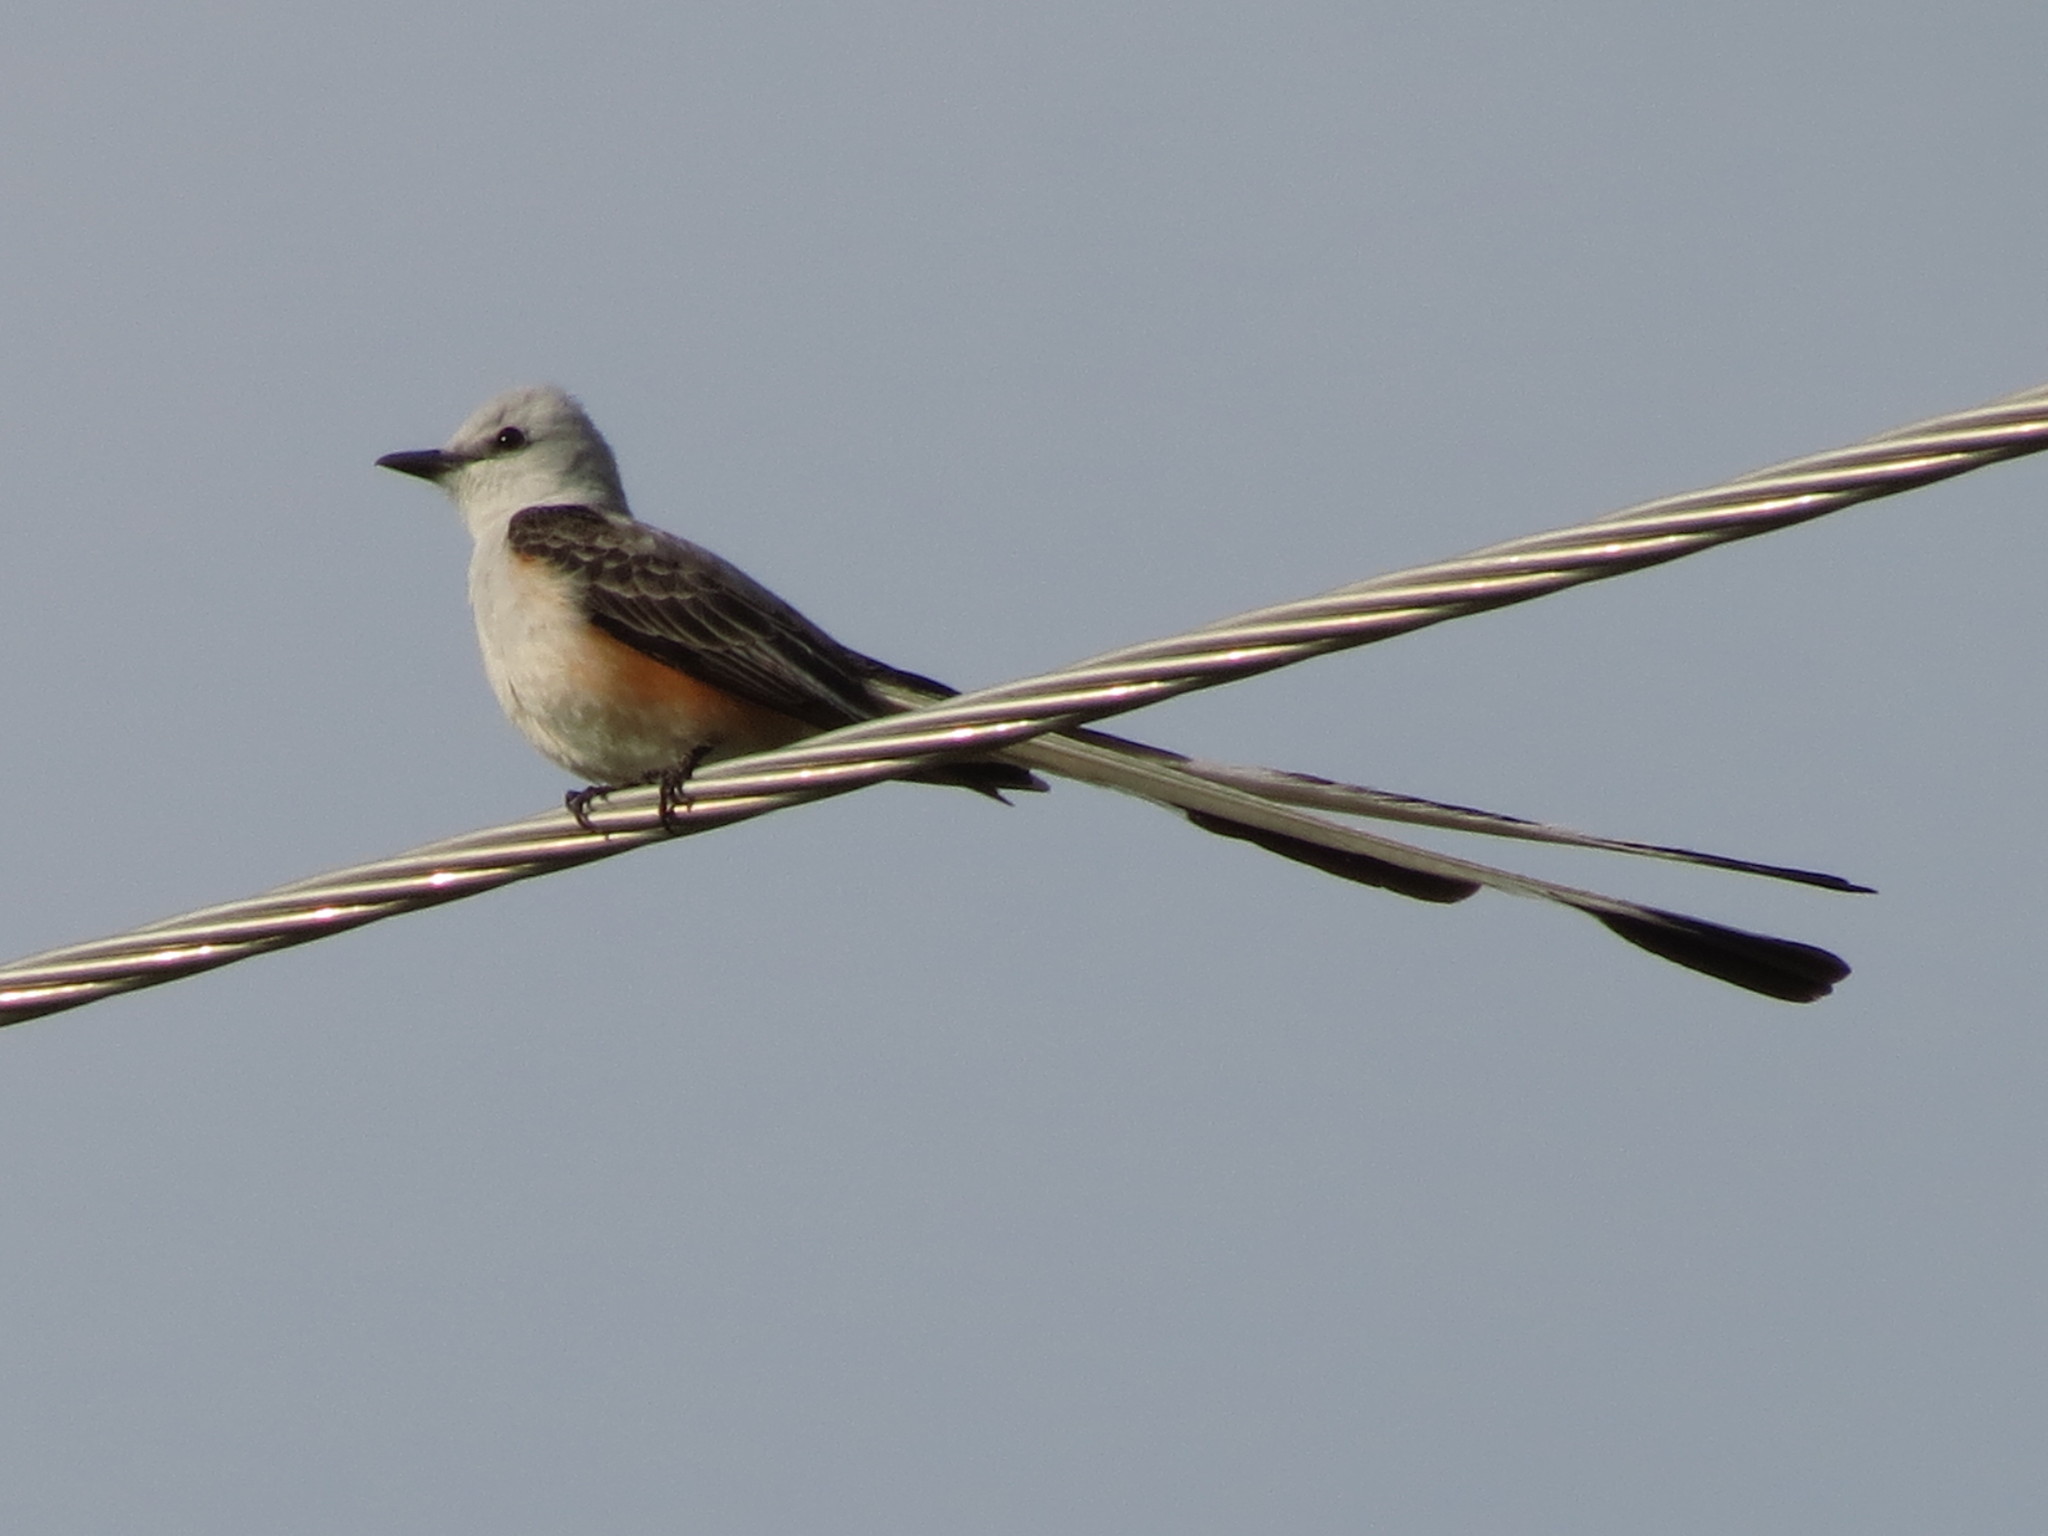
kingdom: Animalia
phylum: Chordata
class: Aves
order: Passeriformes
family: Tyrannidae
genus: Tyrannus
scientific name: Tyrannus forficatus
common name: Scissor-tailed flycatcher
